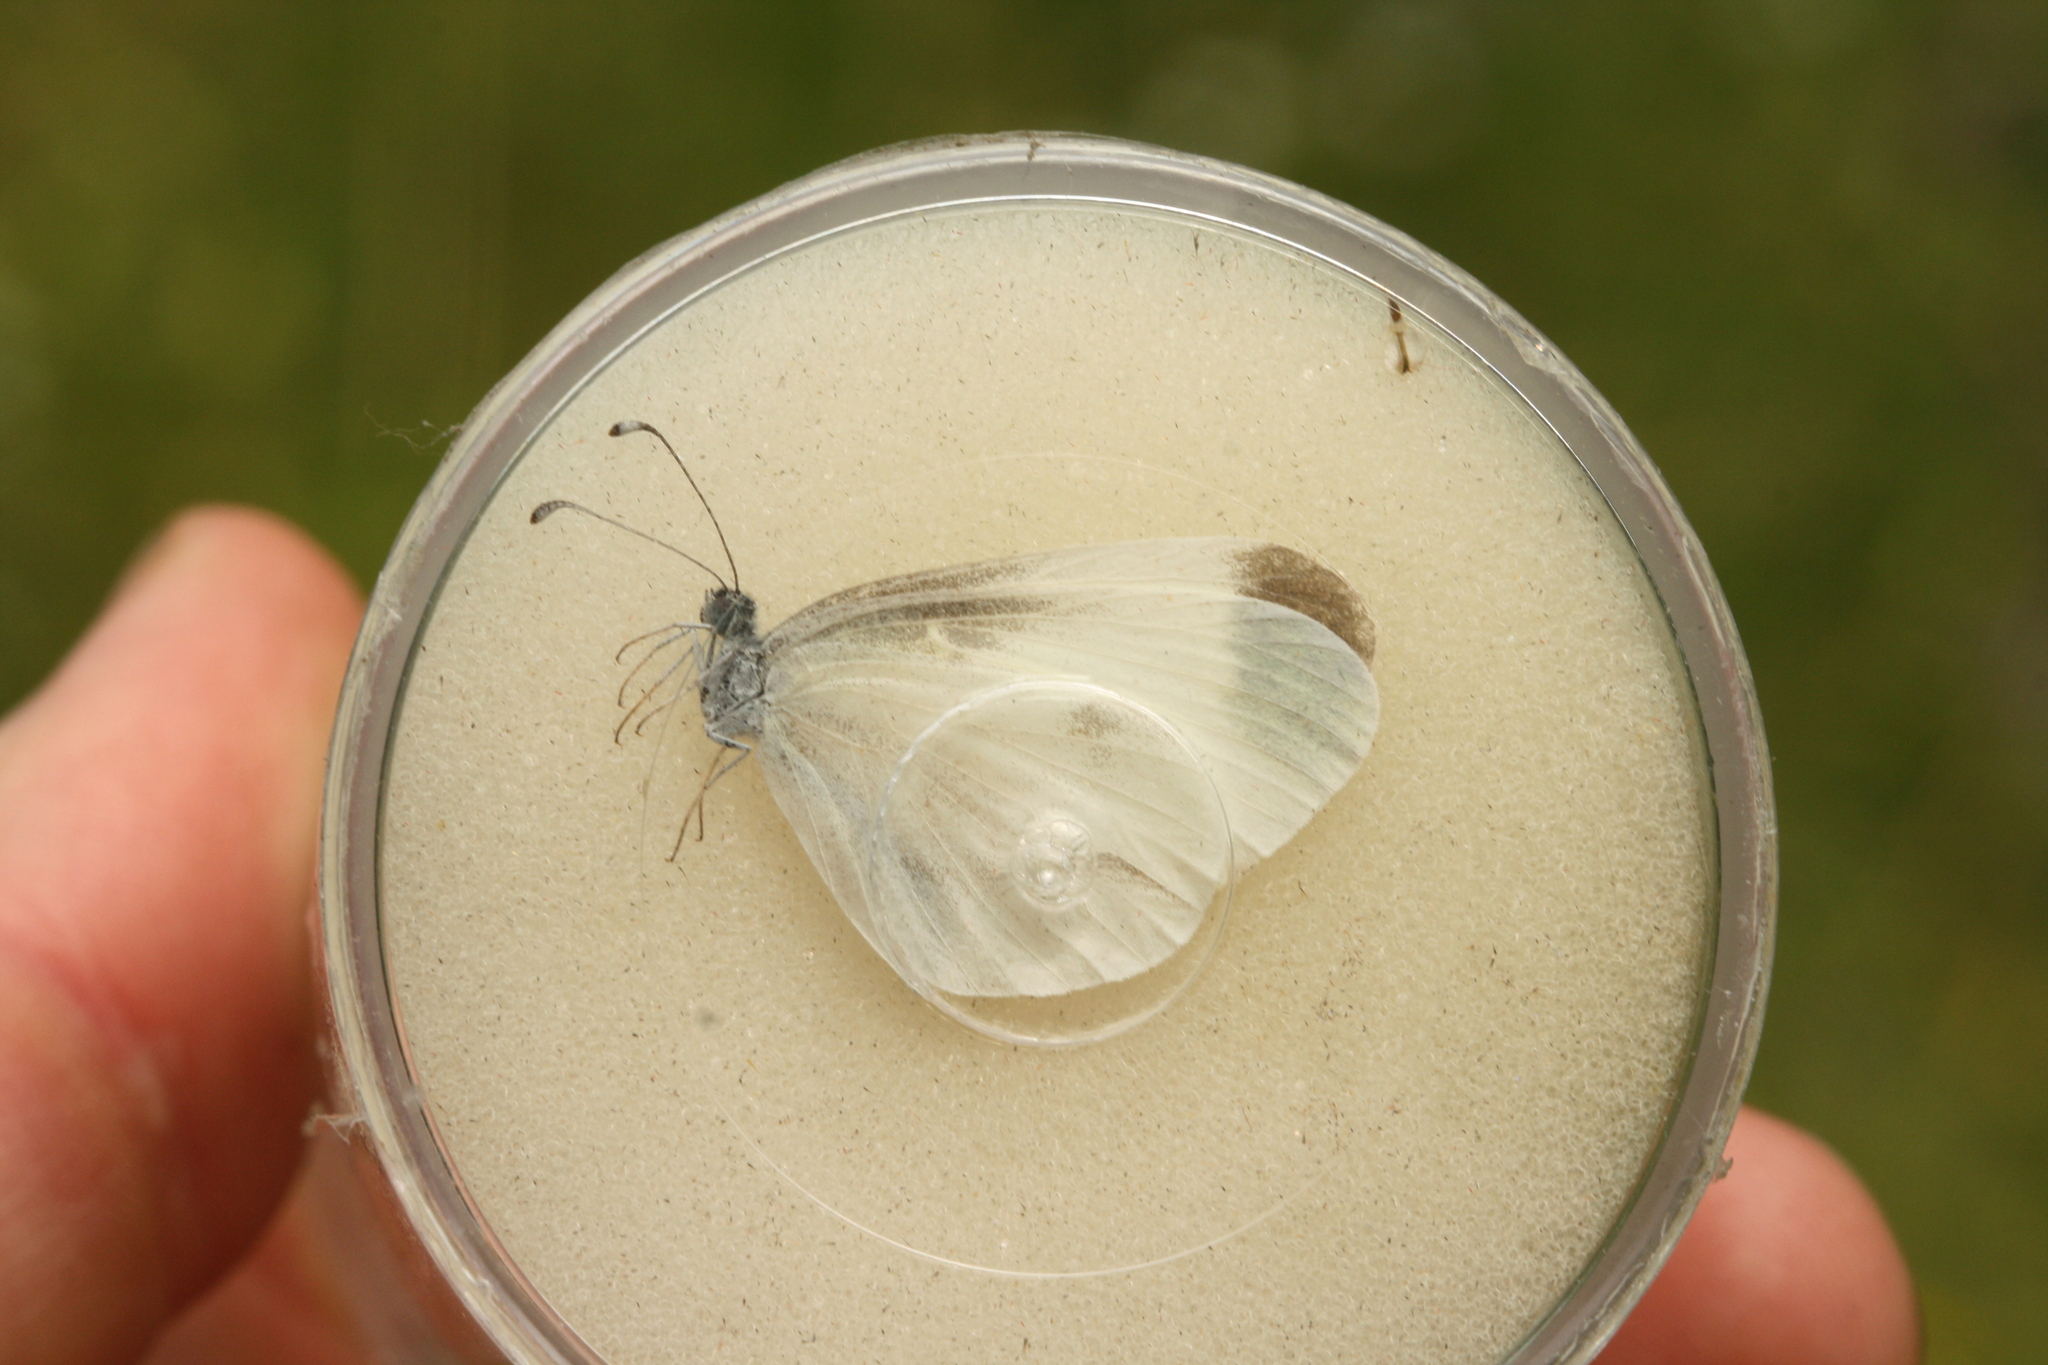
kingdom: Animalia
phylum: Arthropoda
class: Insecta
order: Lepidoptera
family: Pieridae
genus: Leptidea
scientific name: Leptidea
